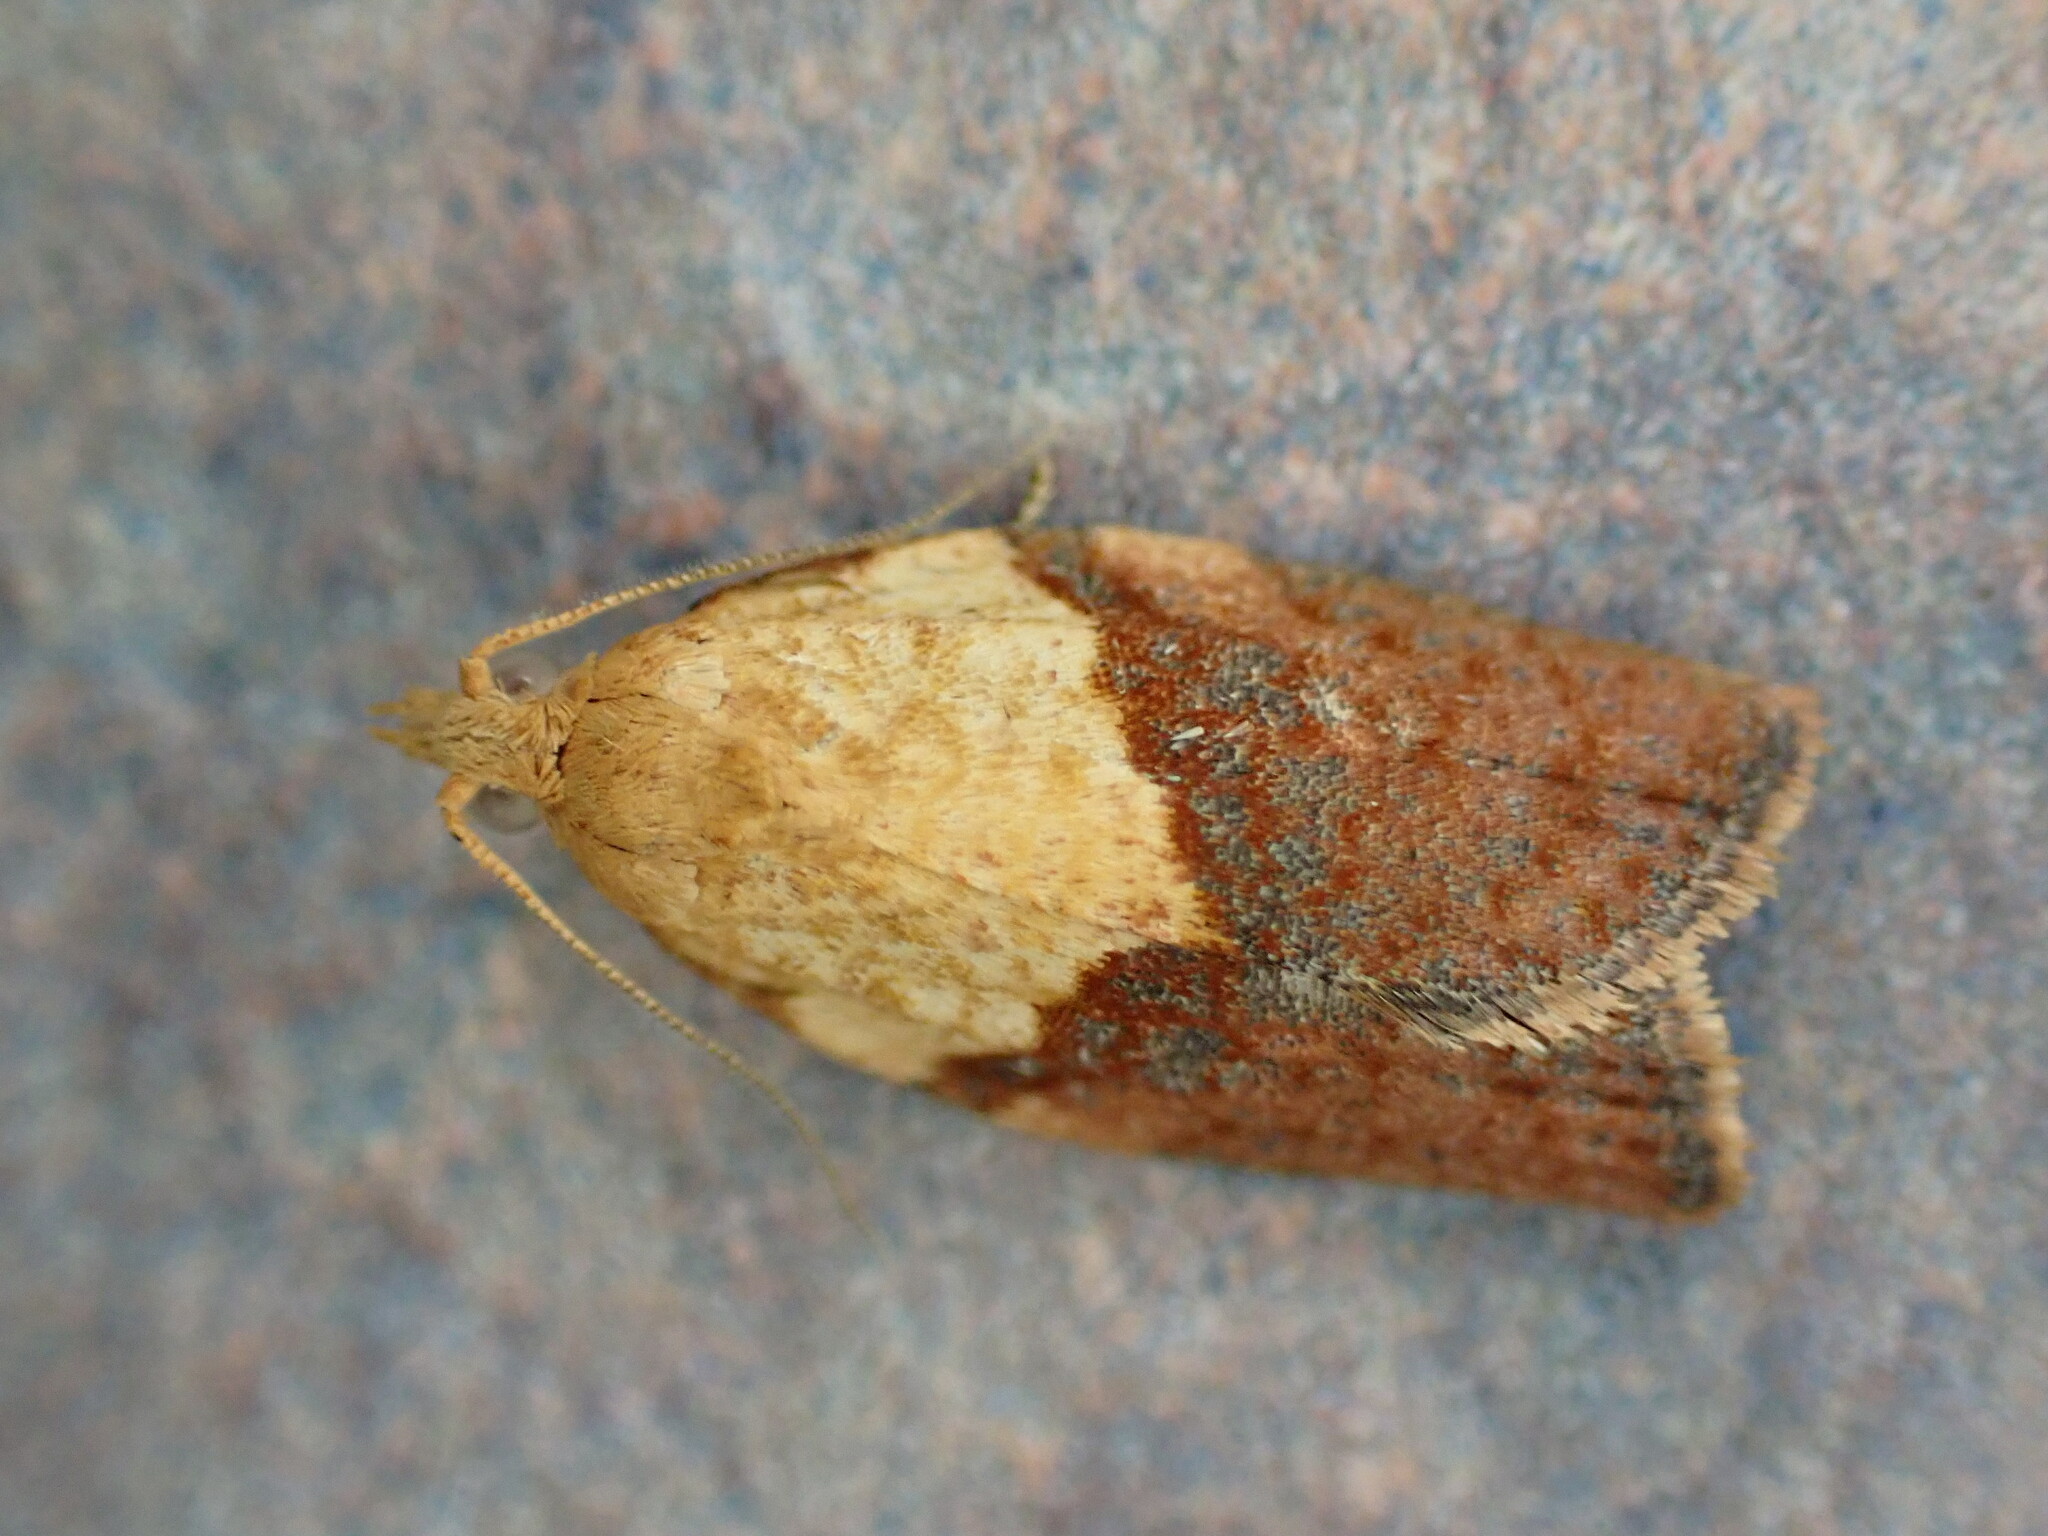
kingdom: Animalia
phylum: Arthropoda
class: Insecta
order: Lepidoptera
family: Tortricidae
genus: Epiphyas
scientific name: Epiphyas postvittana
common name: Light brown apple moth
